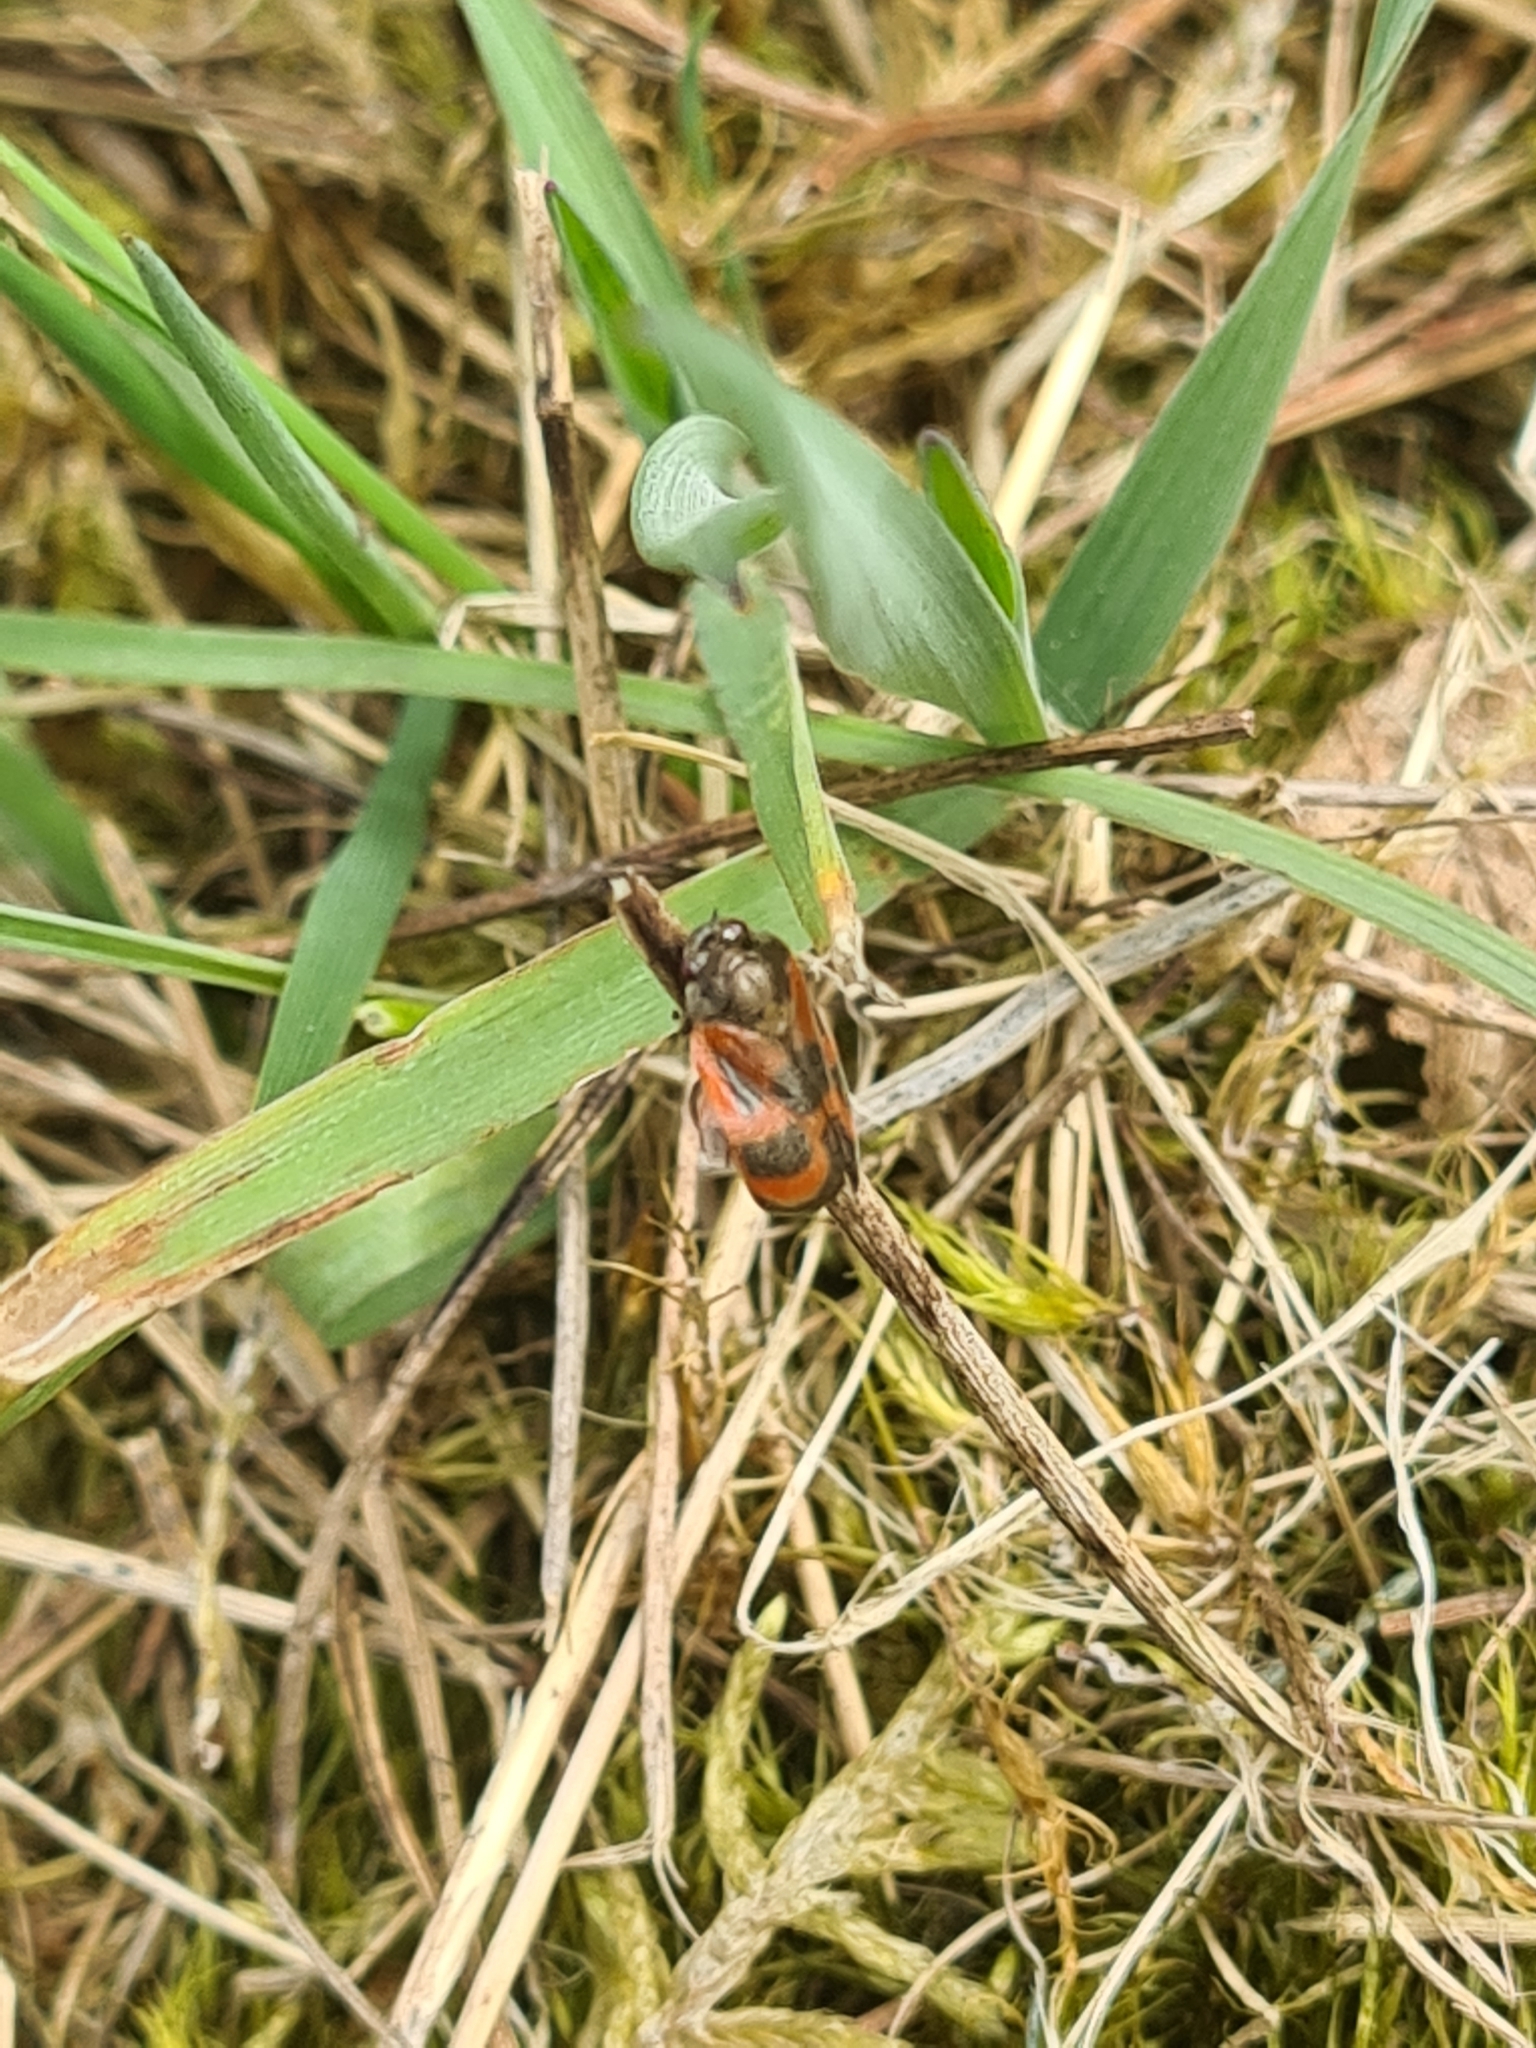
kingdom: Animalia
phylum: Arthropoda
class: Insecta
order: Hemiptera
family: Cercopidae
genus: Haematoloma
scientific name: Haematoloma dorsata
